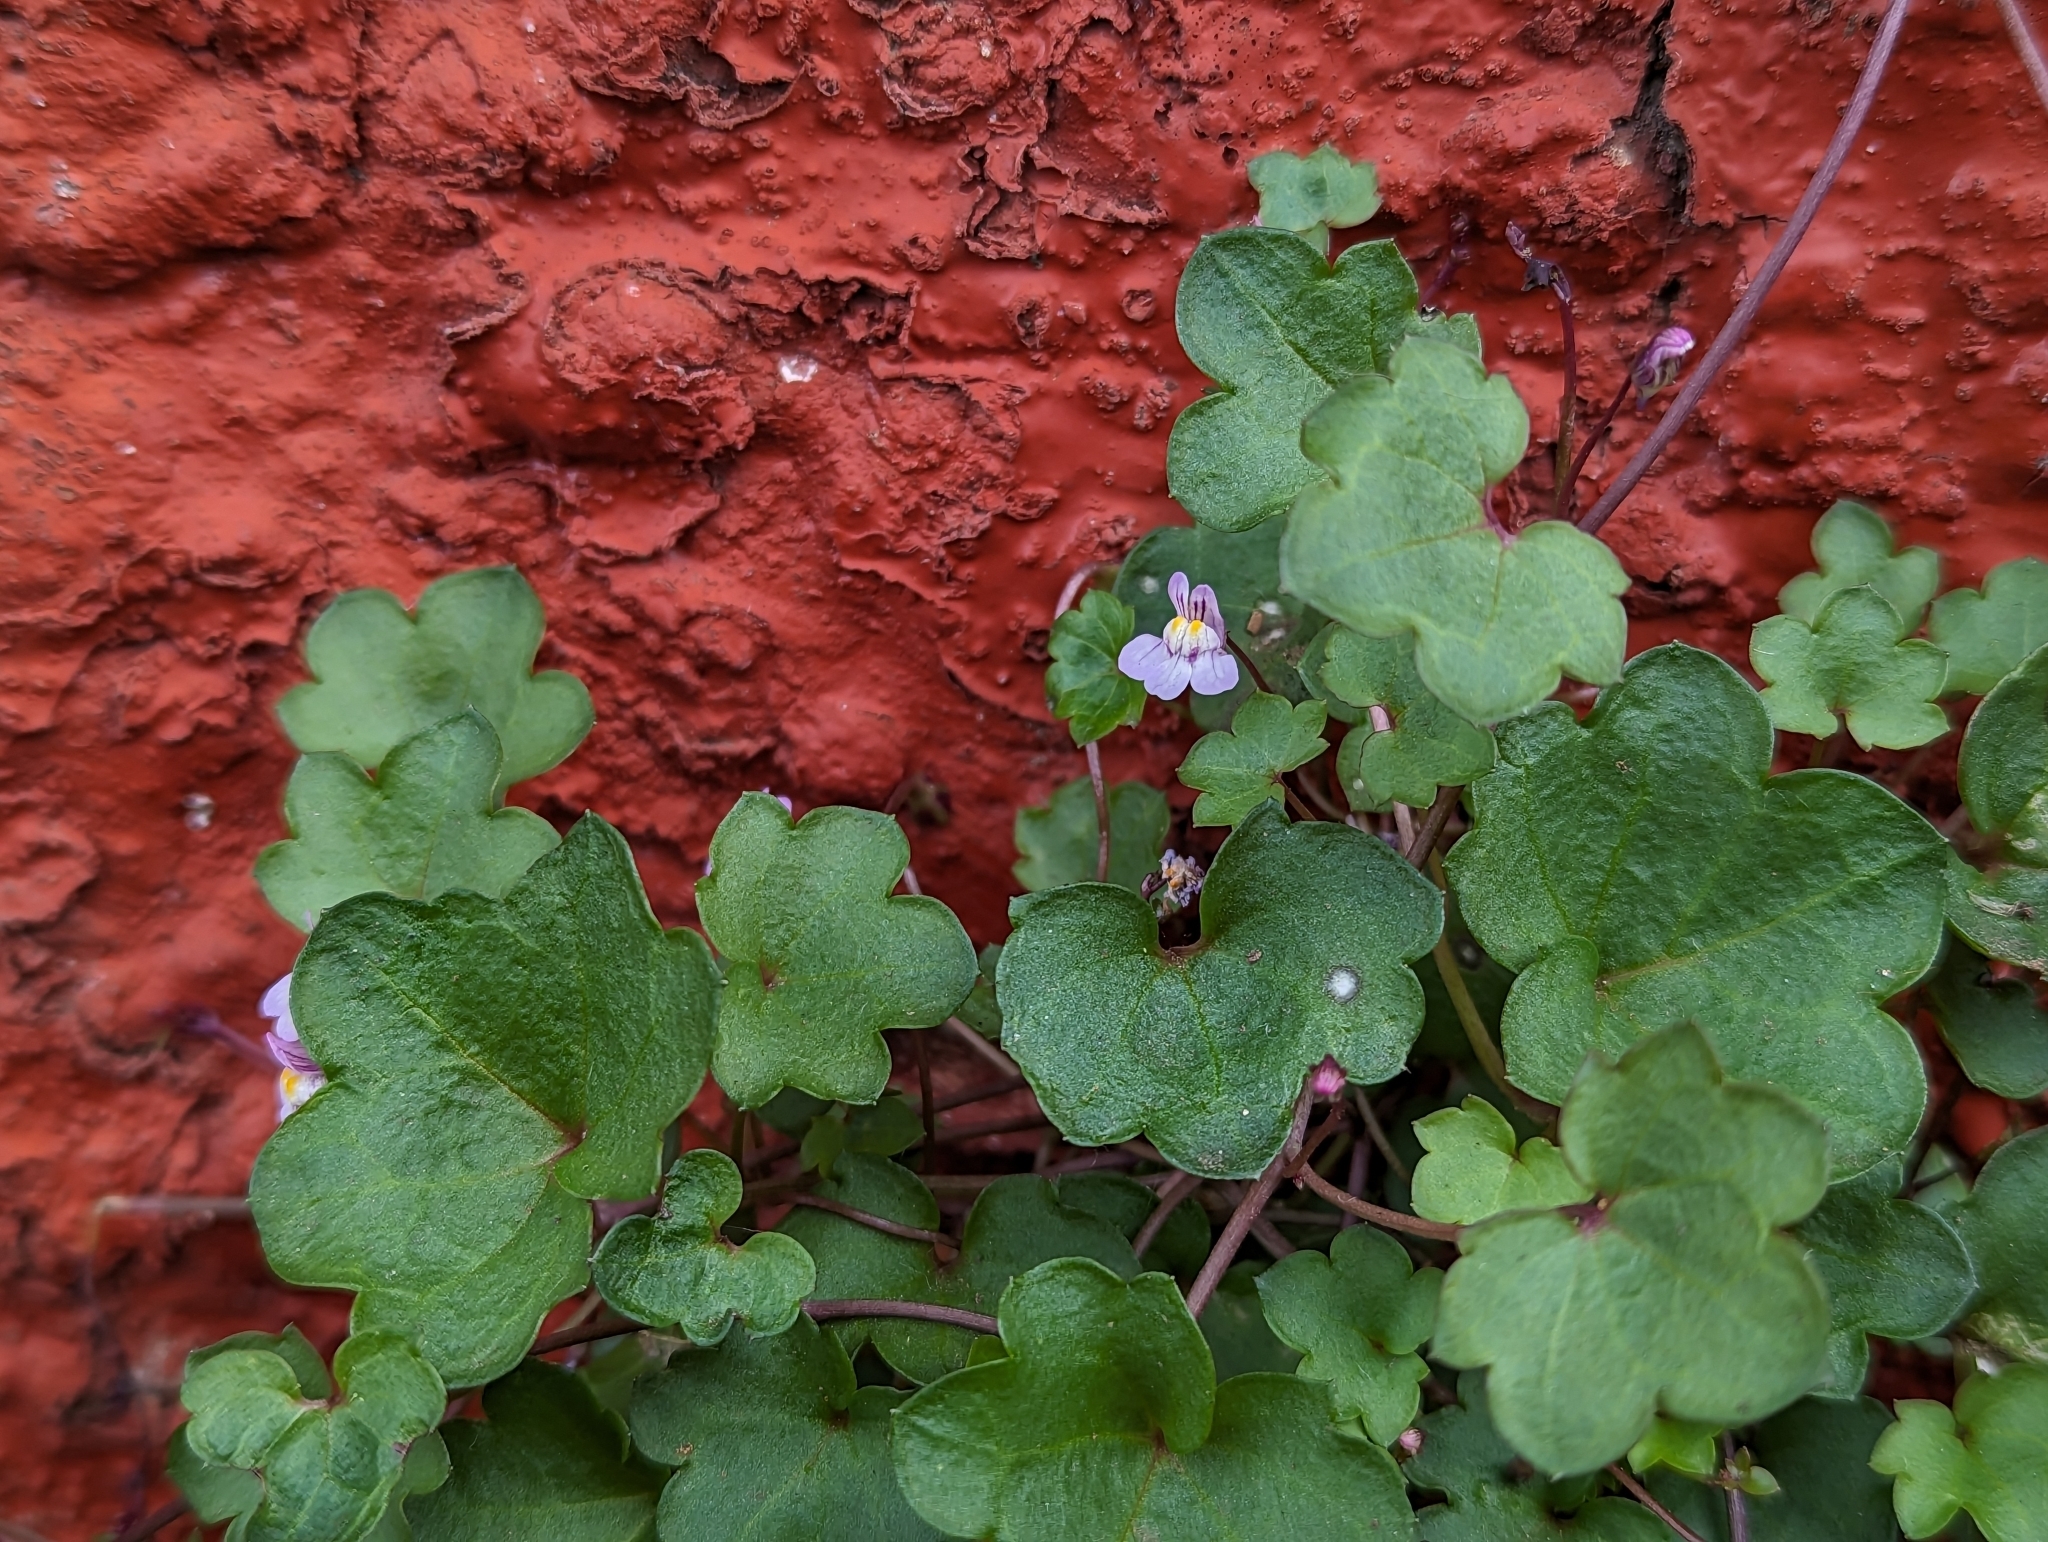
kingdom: Plantae
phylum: Tracheophyta
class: Magnoliopsida
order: Lamiales
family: Plantaginaceae
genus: Cymbalaria
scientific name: Cymbalaria muralis
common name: Ivy-leaved toadflax
